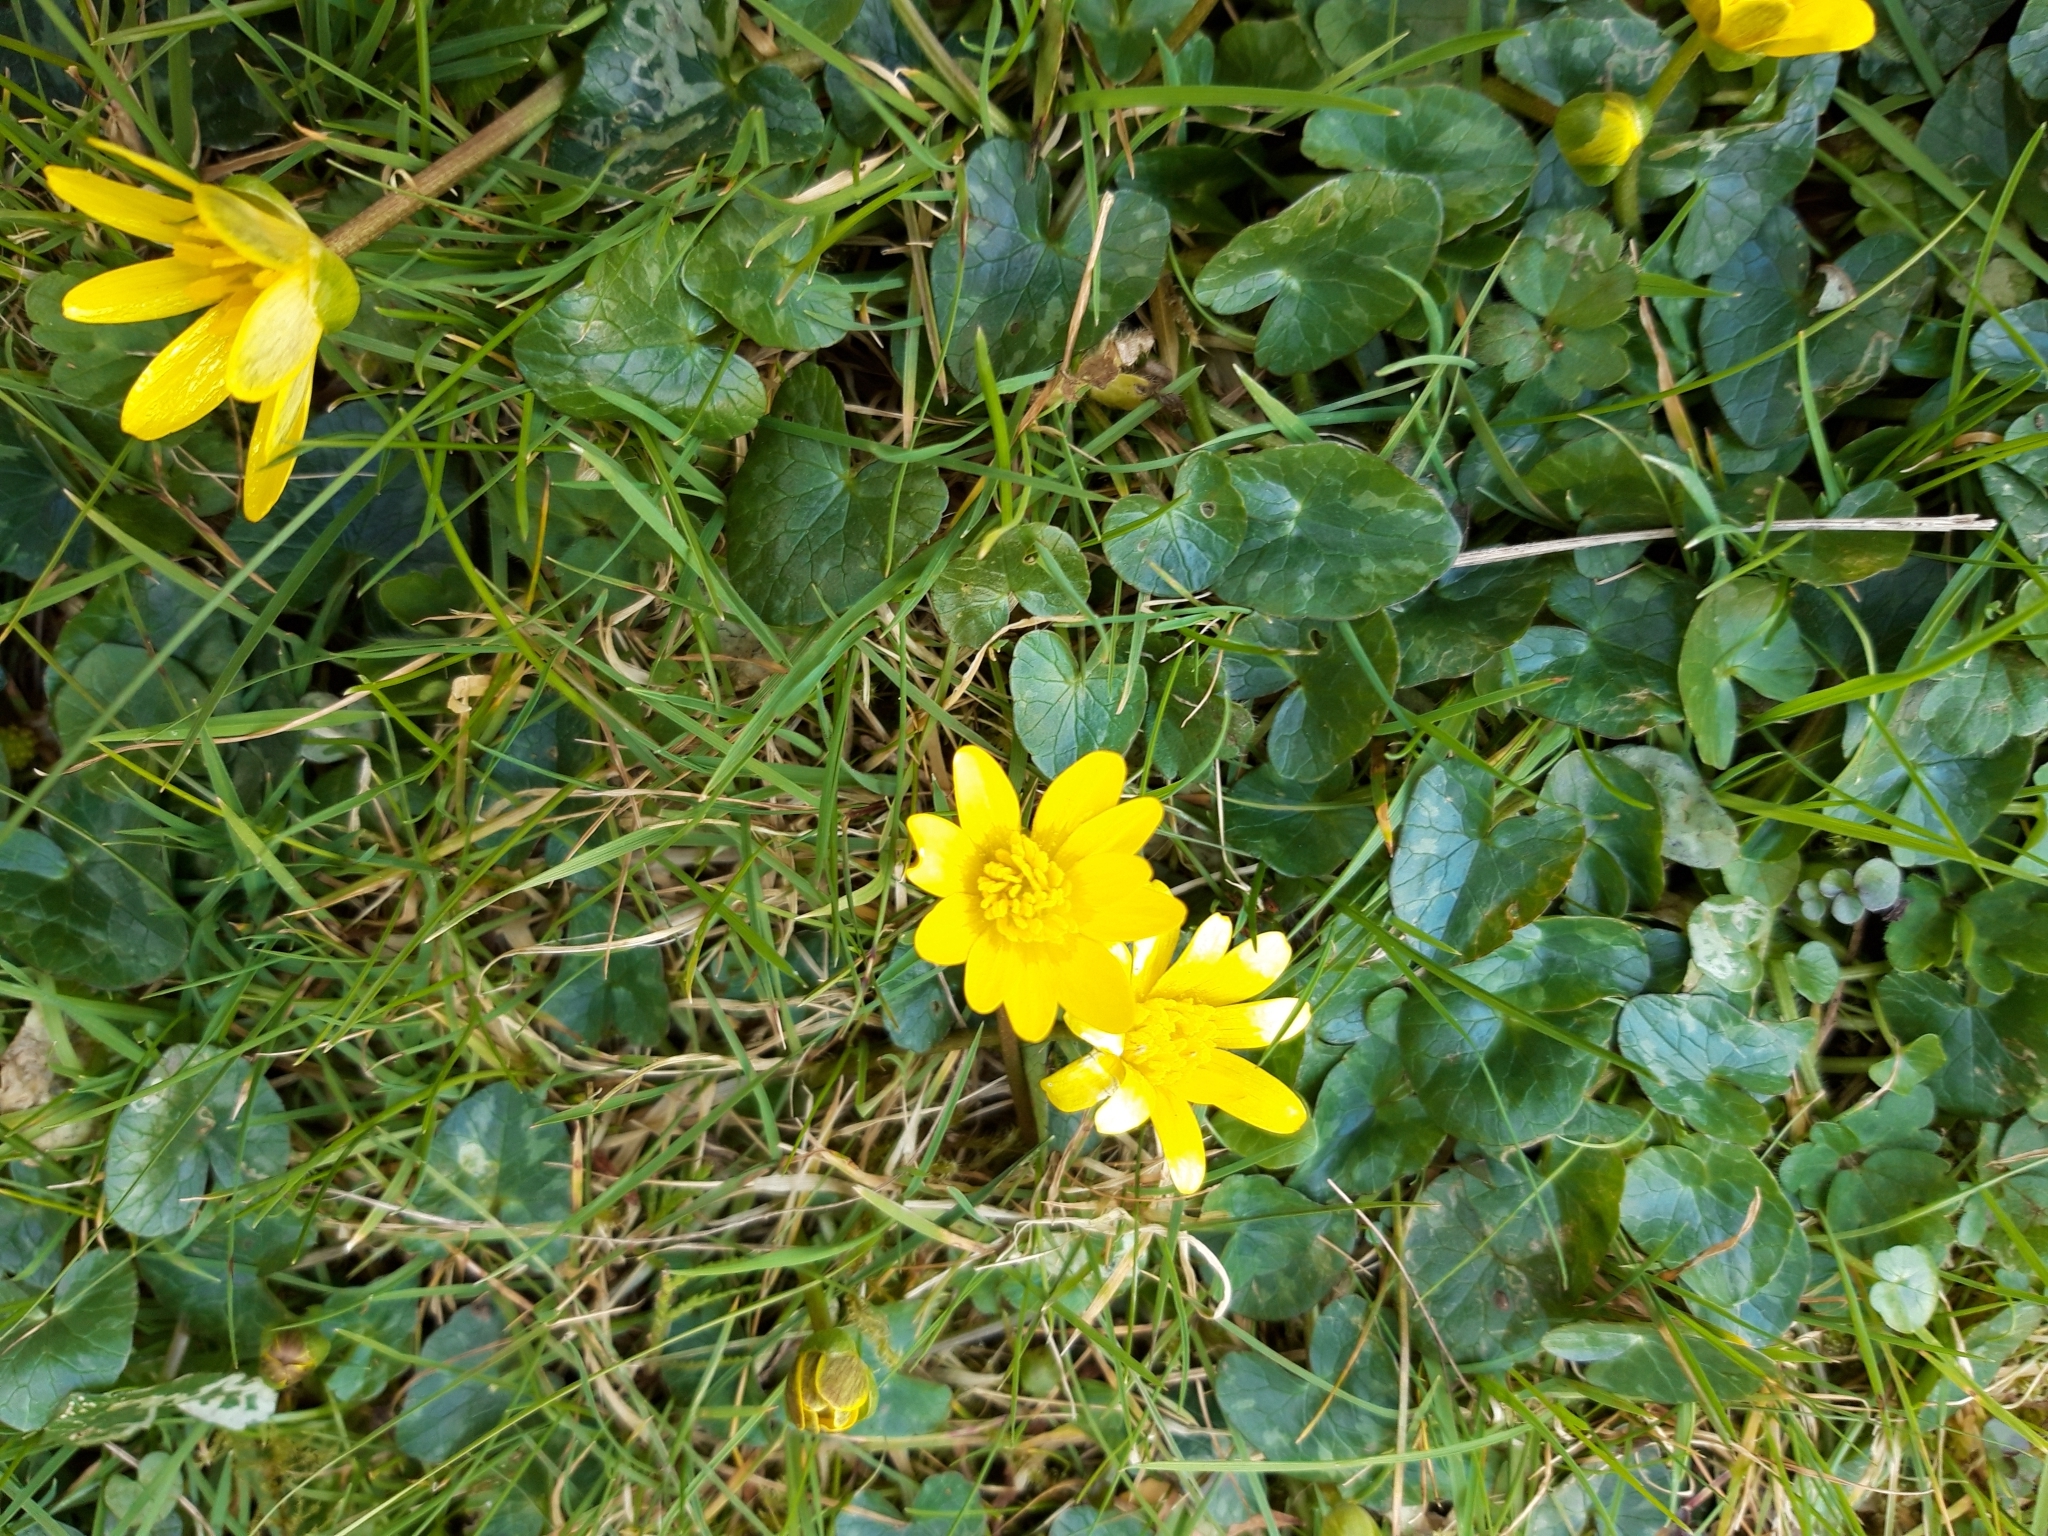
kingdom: Plantae
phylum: Tracheophyta
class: Magnoliopsida
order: Ranunculales
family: Ranunculaceae
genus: Ficaria
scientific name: Ficaria verna
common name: Lesser celandine
